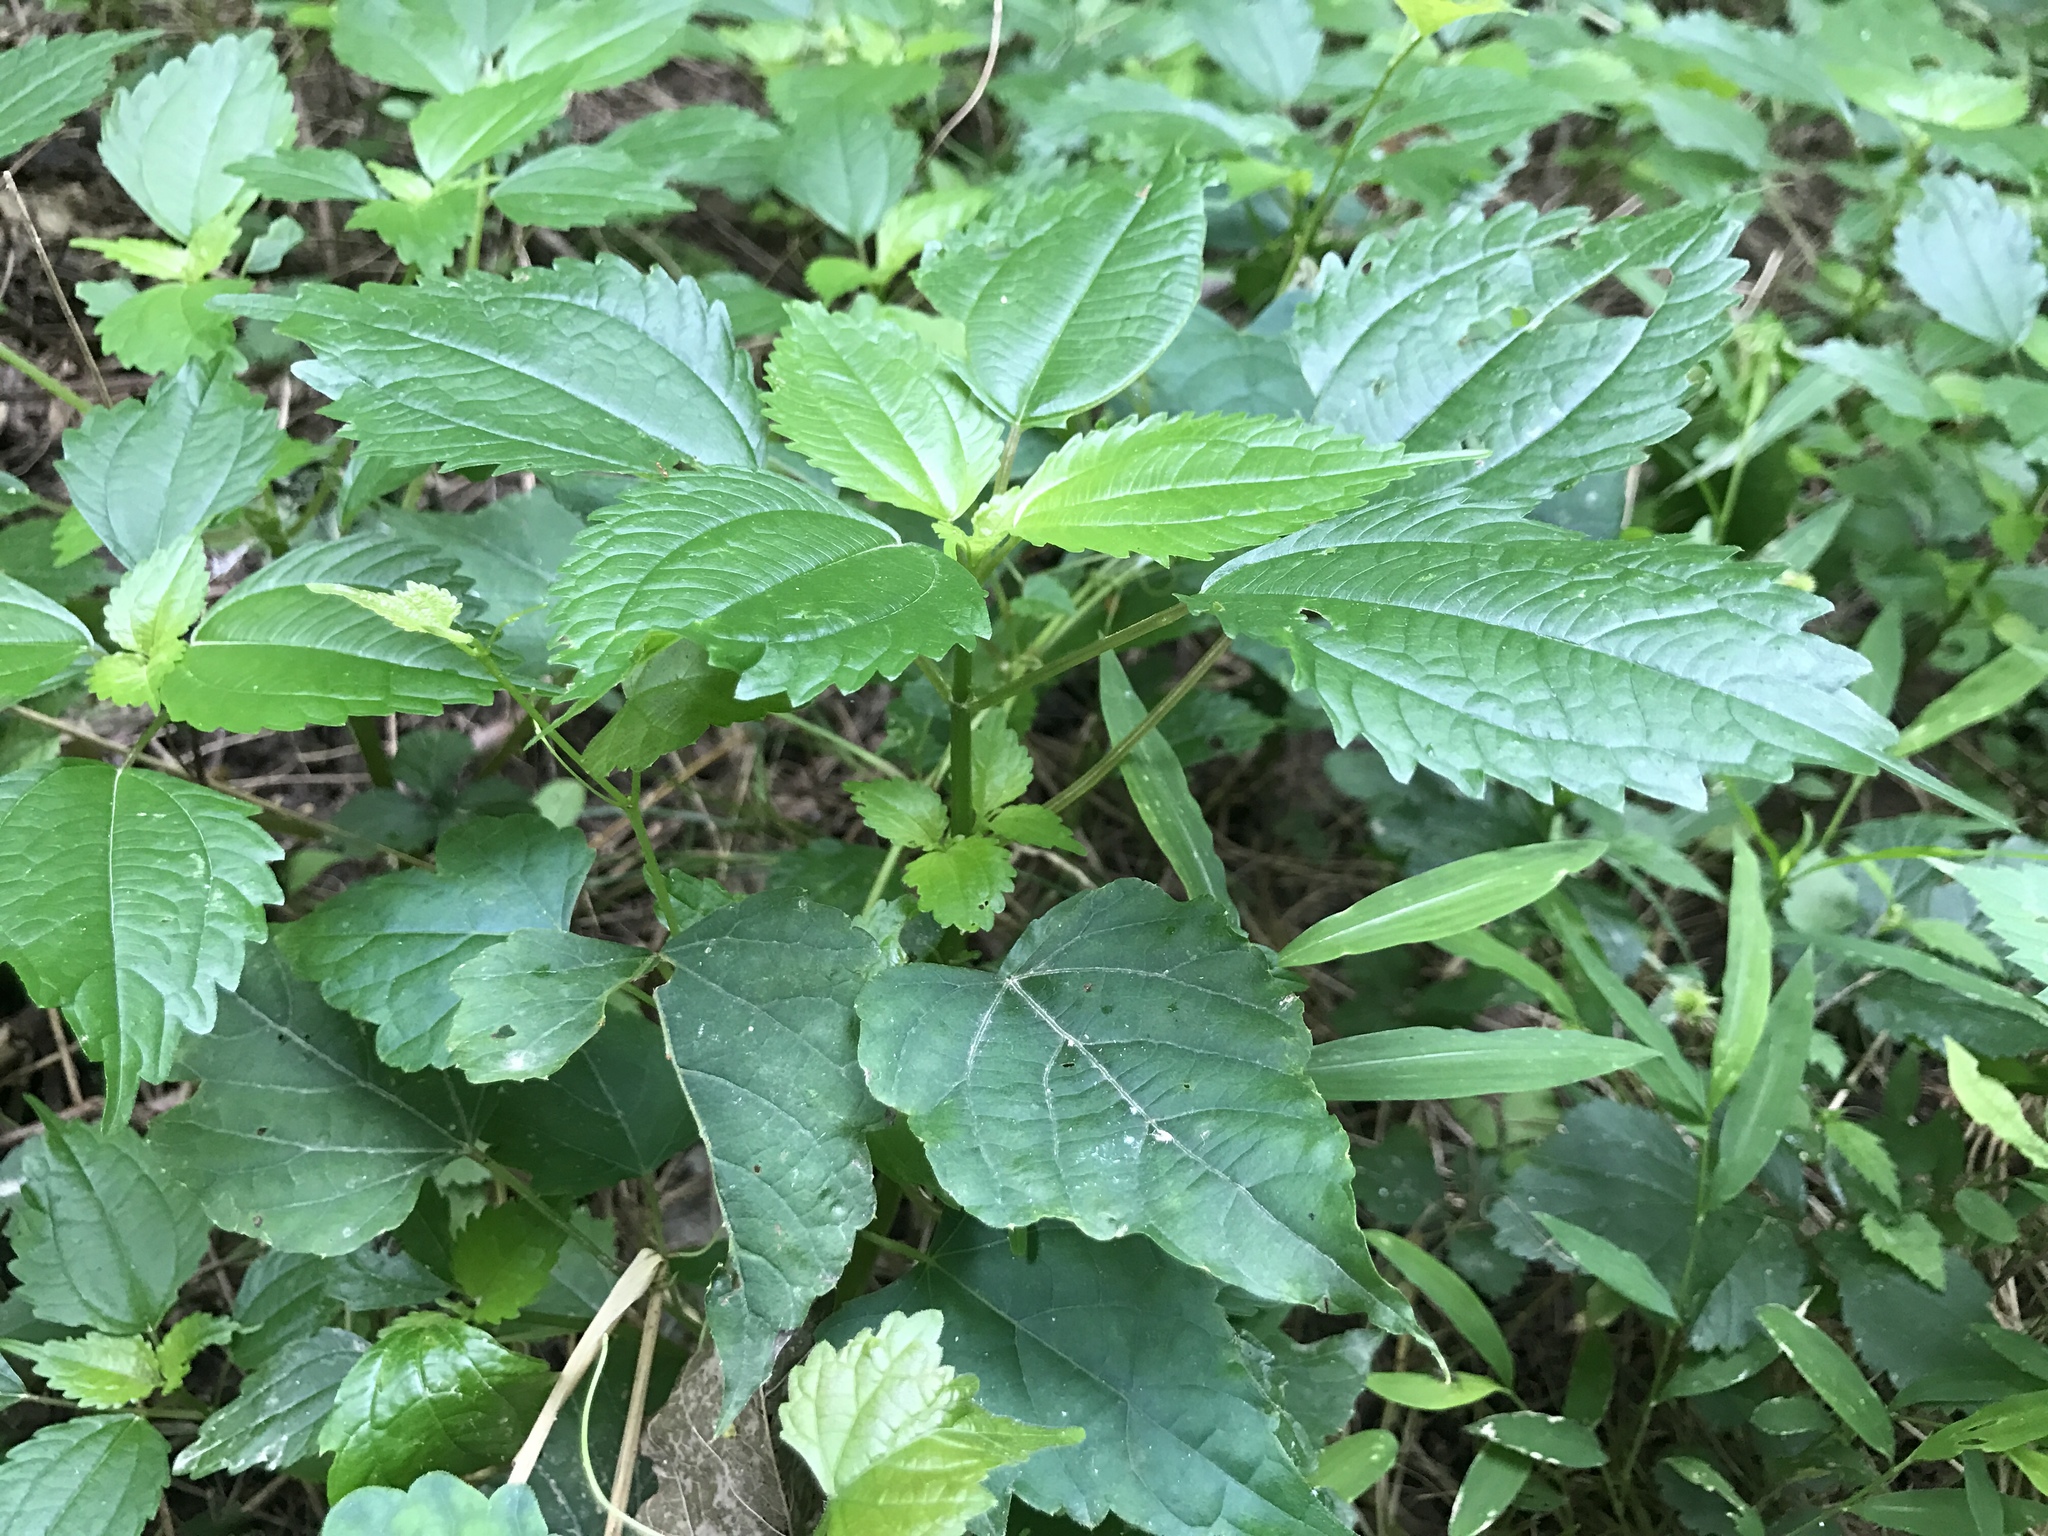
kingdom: Plantae
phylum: Tracheophyta
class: Magnoliopsida
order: Rosales
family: Urticaceae
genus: Pilea
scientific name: Pilea pumila
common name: Clearweed
